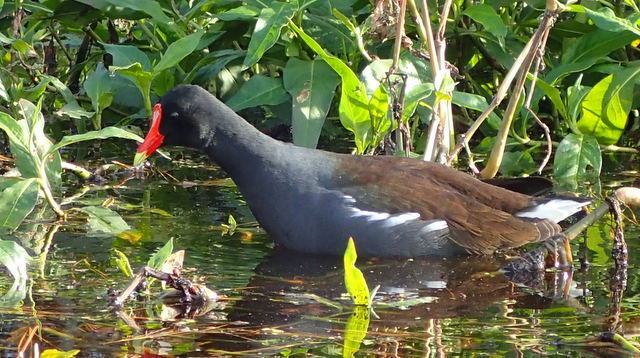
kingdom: Animalia
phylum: Chordata
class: Aves
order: Gruiformes
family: Rallidae
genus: Gallinula
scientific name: Gallinula chloropus
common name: Common moorhen
